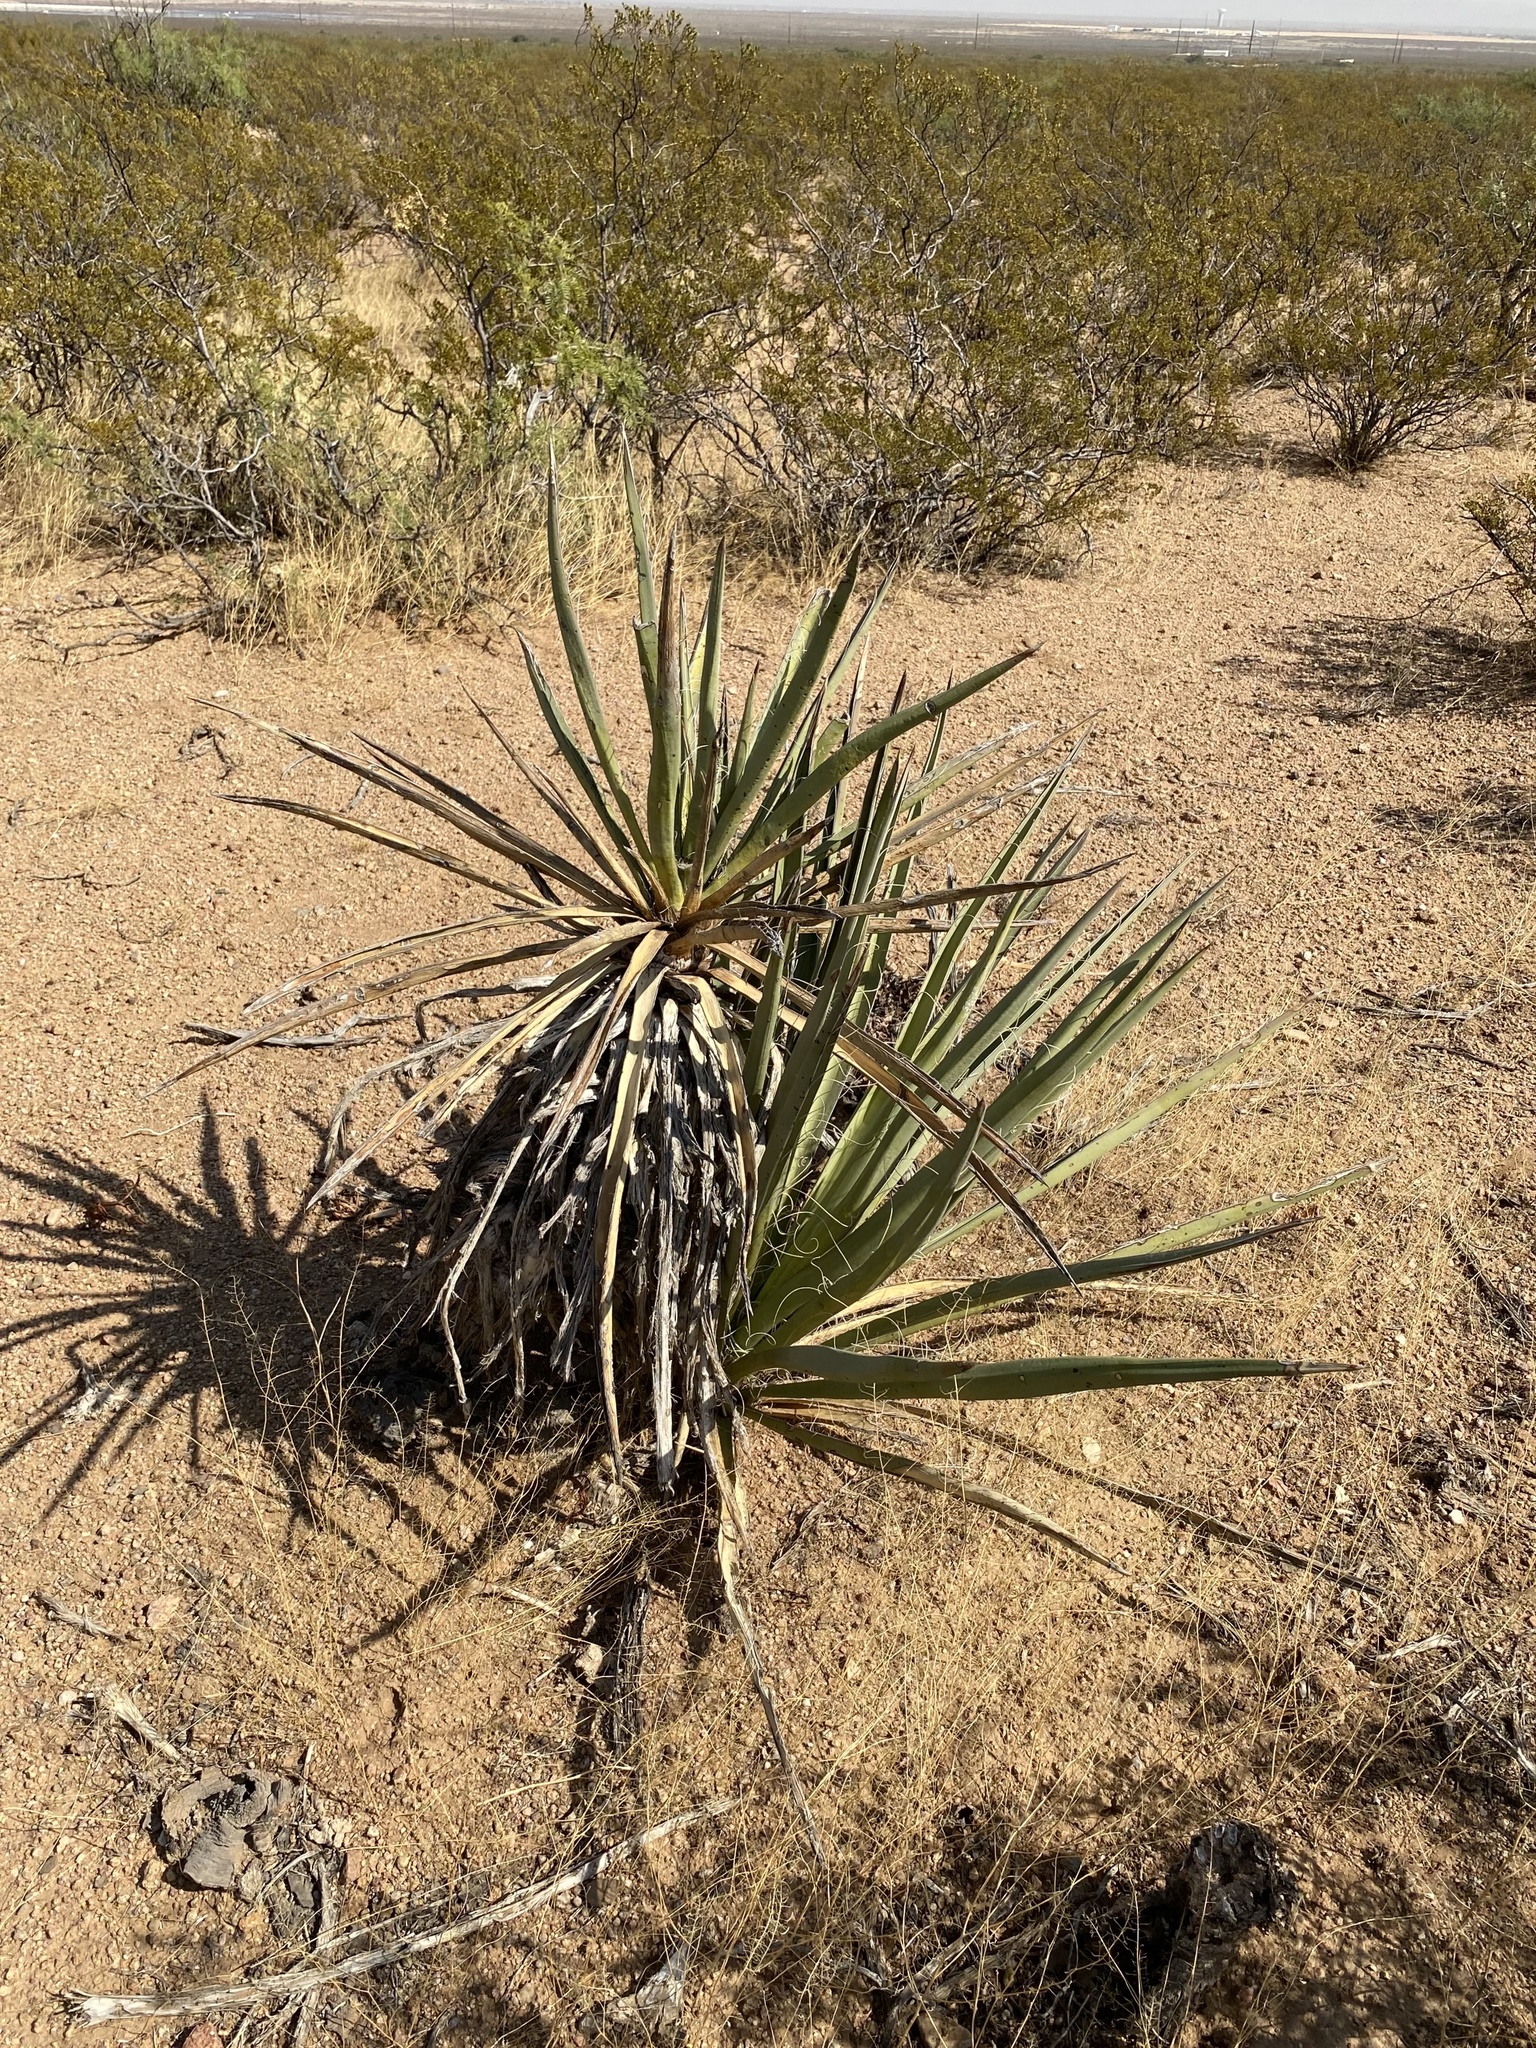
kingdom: Plantae
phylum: Tracheophyta
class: Liliopsida
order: Asparagales
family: Asparagaceae
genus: Yucca
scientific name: Yucca baccata
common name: Banana yucca
